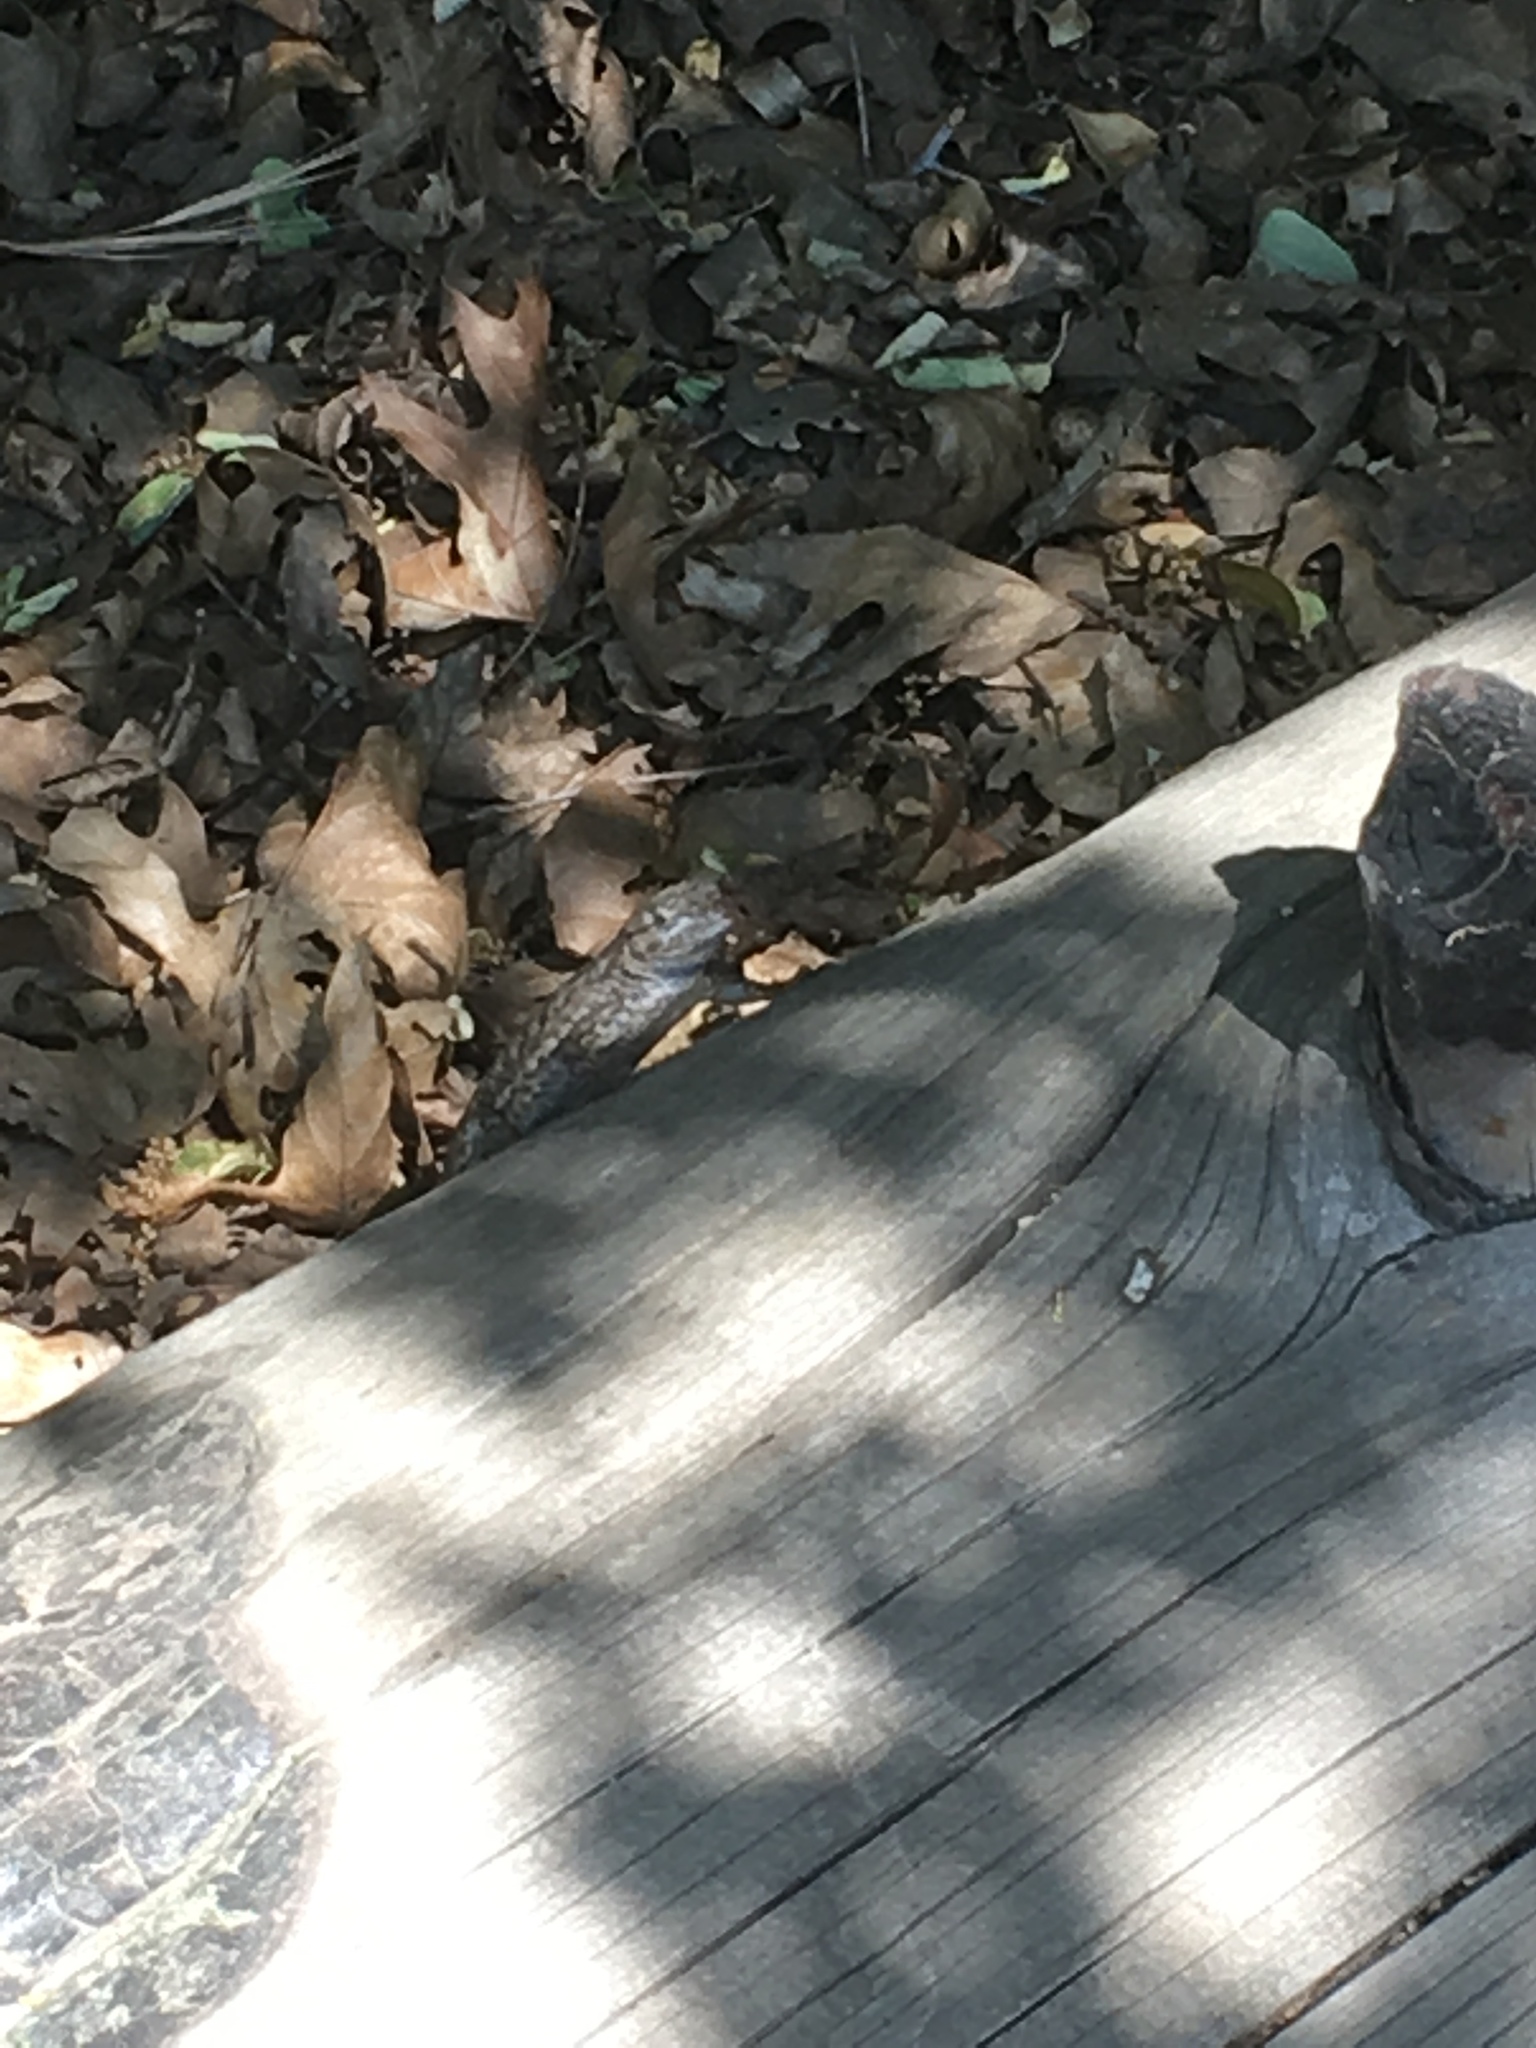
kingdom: Animalia
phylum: Chordata
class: Squamata
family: Phrynosomatidae
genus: Sceloporus
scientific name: Sceloporus occidentalis
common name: Western fence lizard
